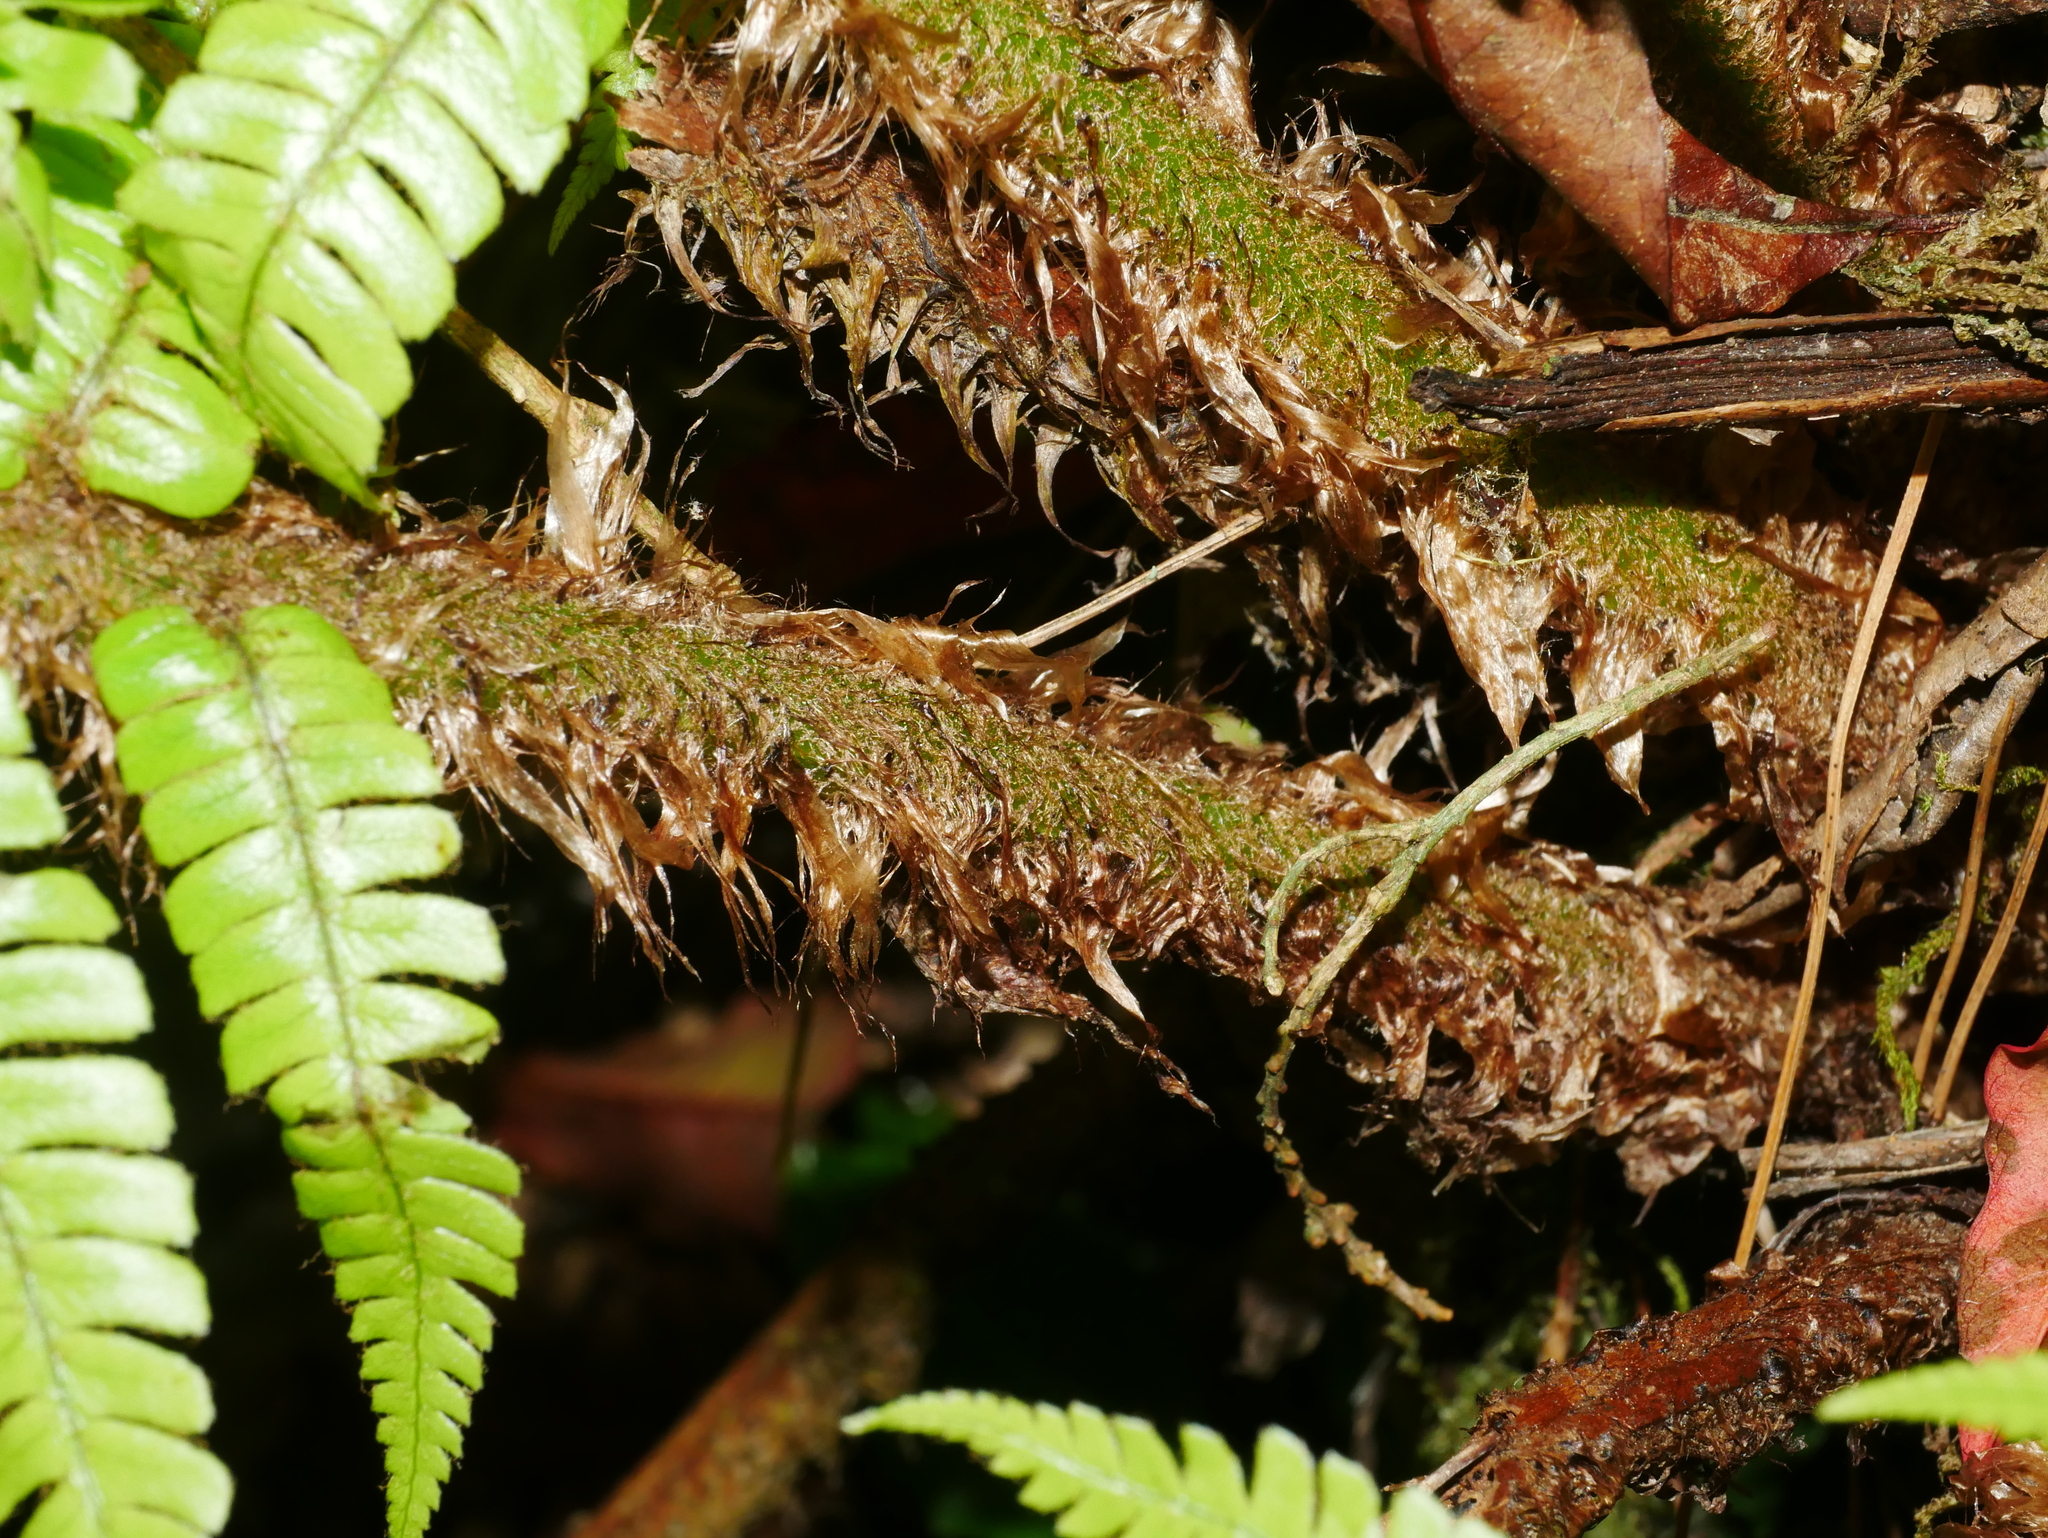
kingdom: Plantae
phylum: Tracheophyta
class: Polypodiopsida
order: Polypodiales
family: Dryopteridaceae
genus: Dryopteris
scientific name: Dryopteris wallichiana
